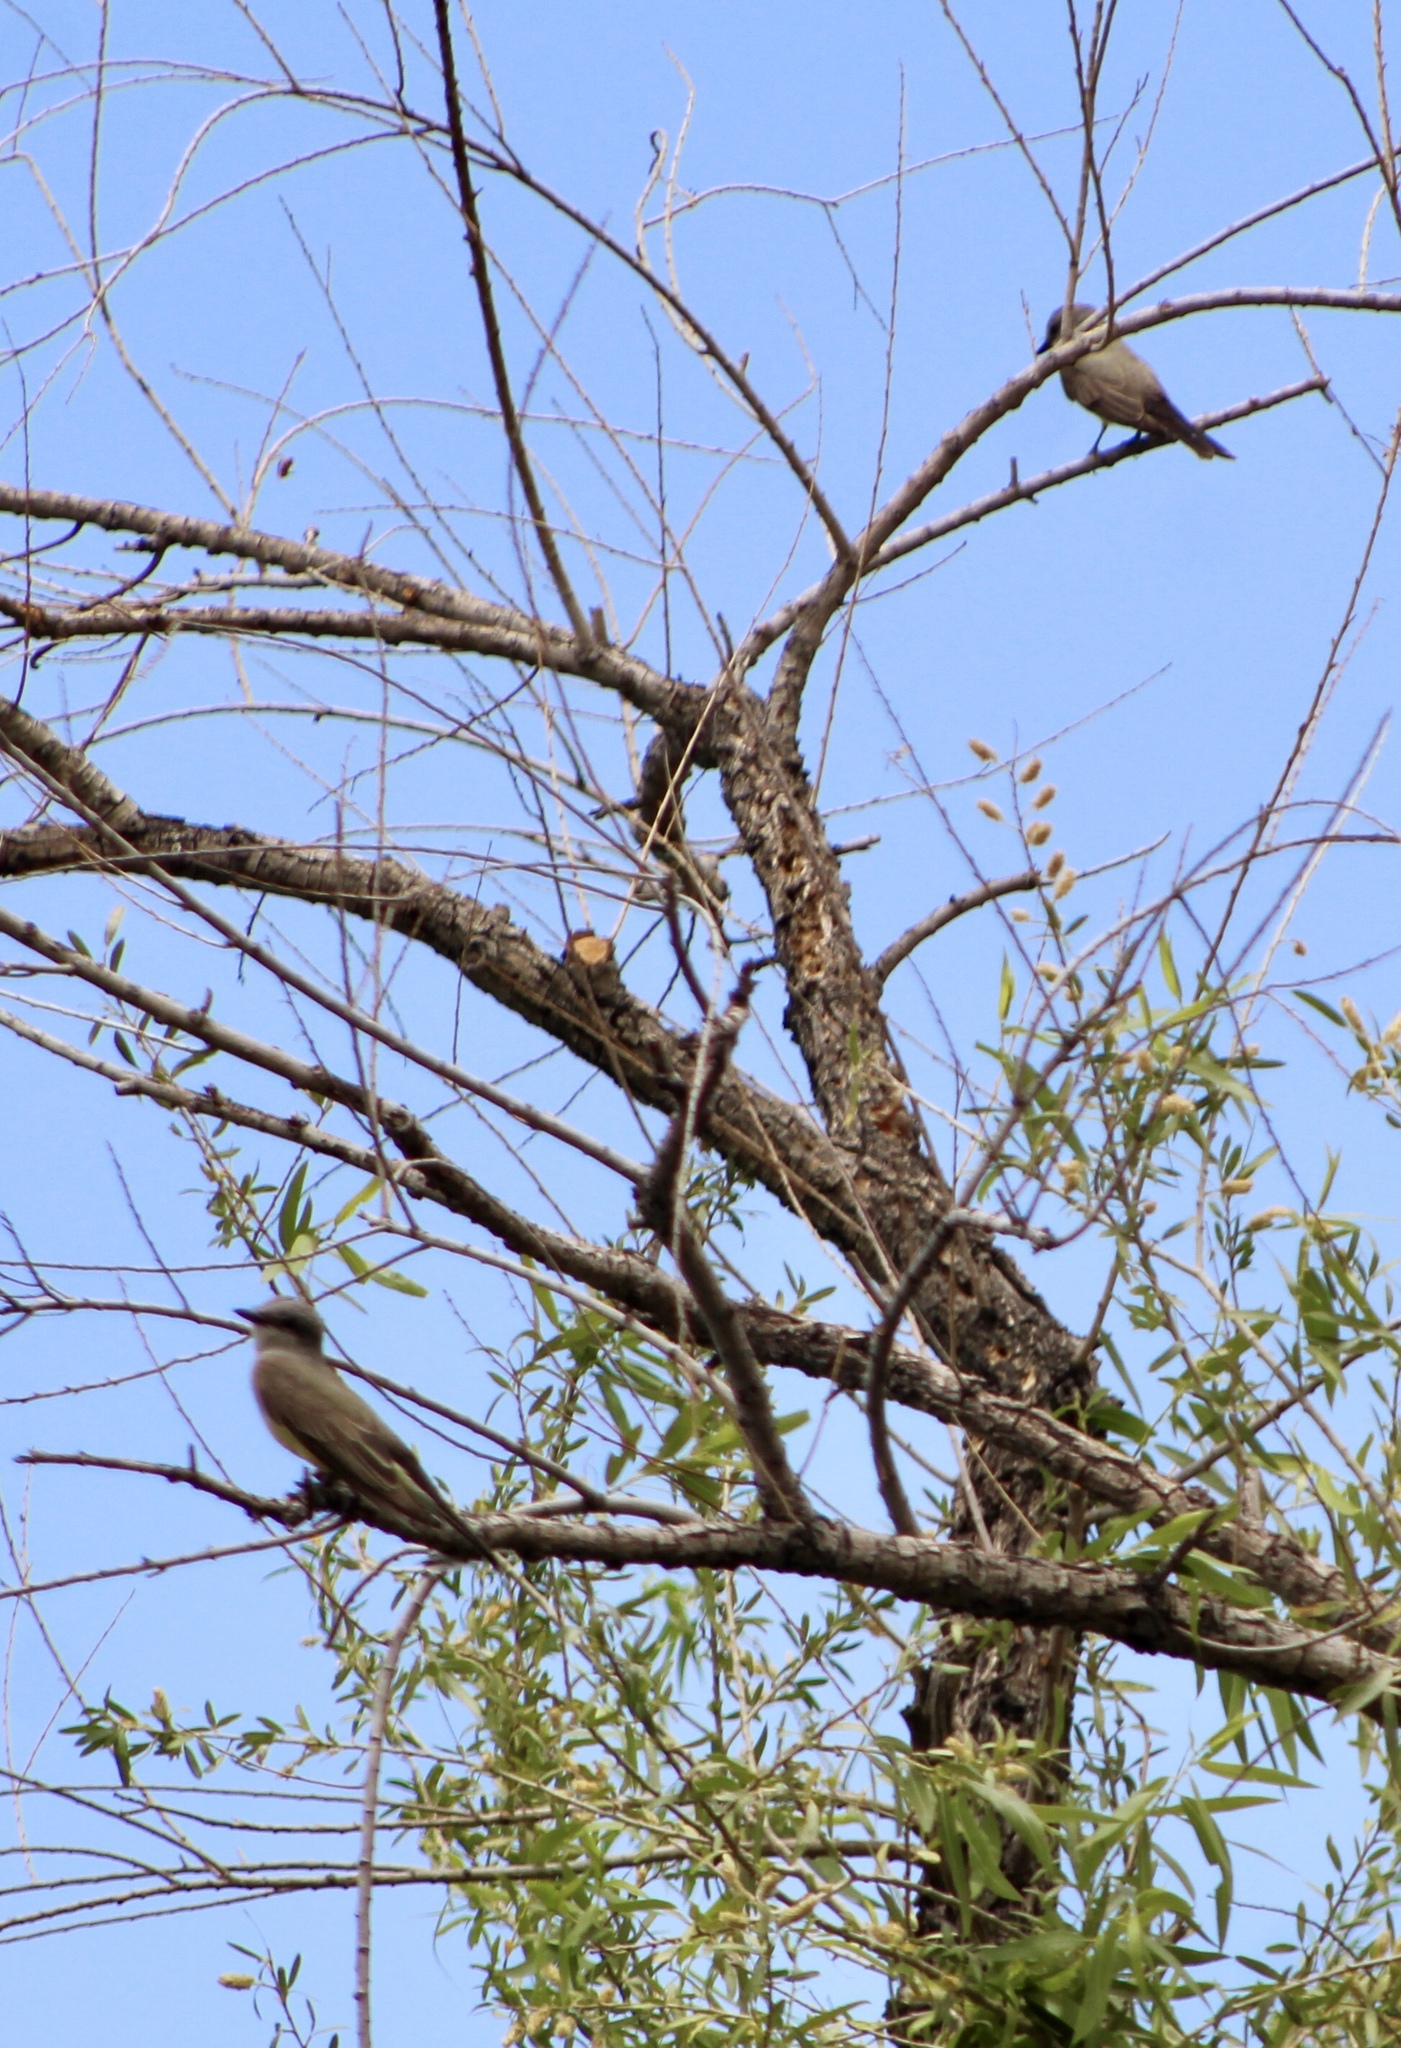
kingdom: Animalia
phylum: Chordata
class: Aves
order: Passeriformes
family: Tyrannidae
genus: Tyrannus
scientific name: Tyrannus verticalis
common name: Western kingbird
